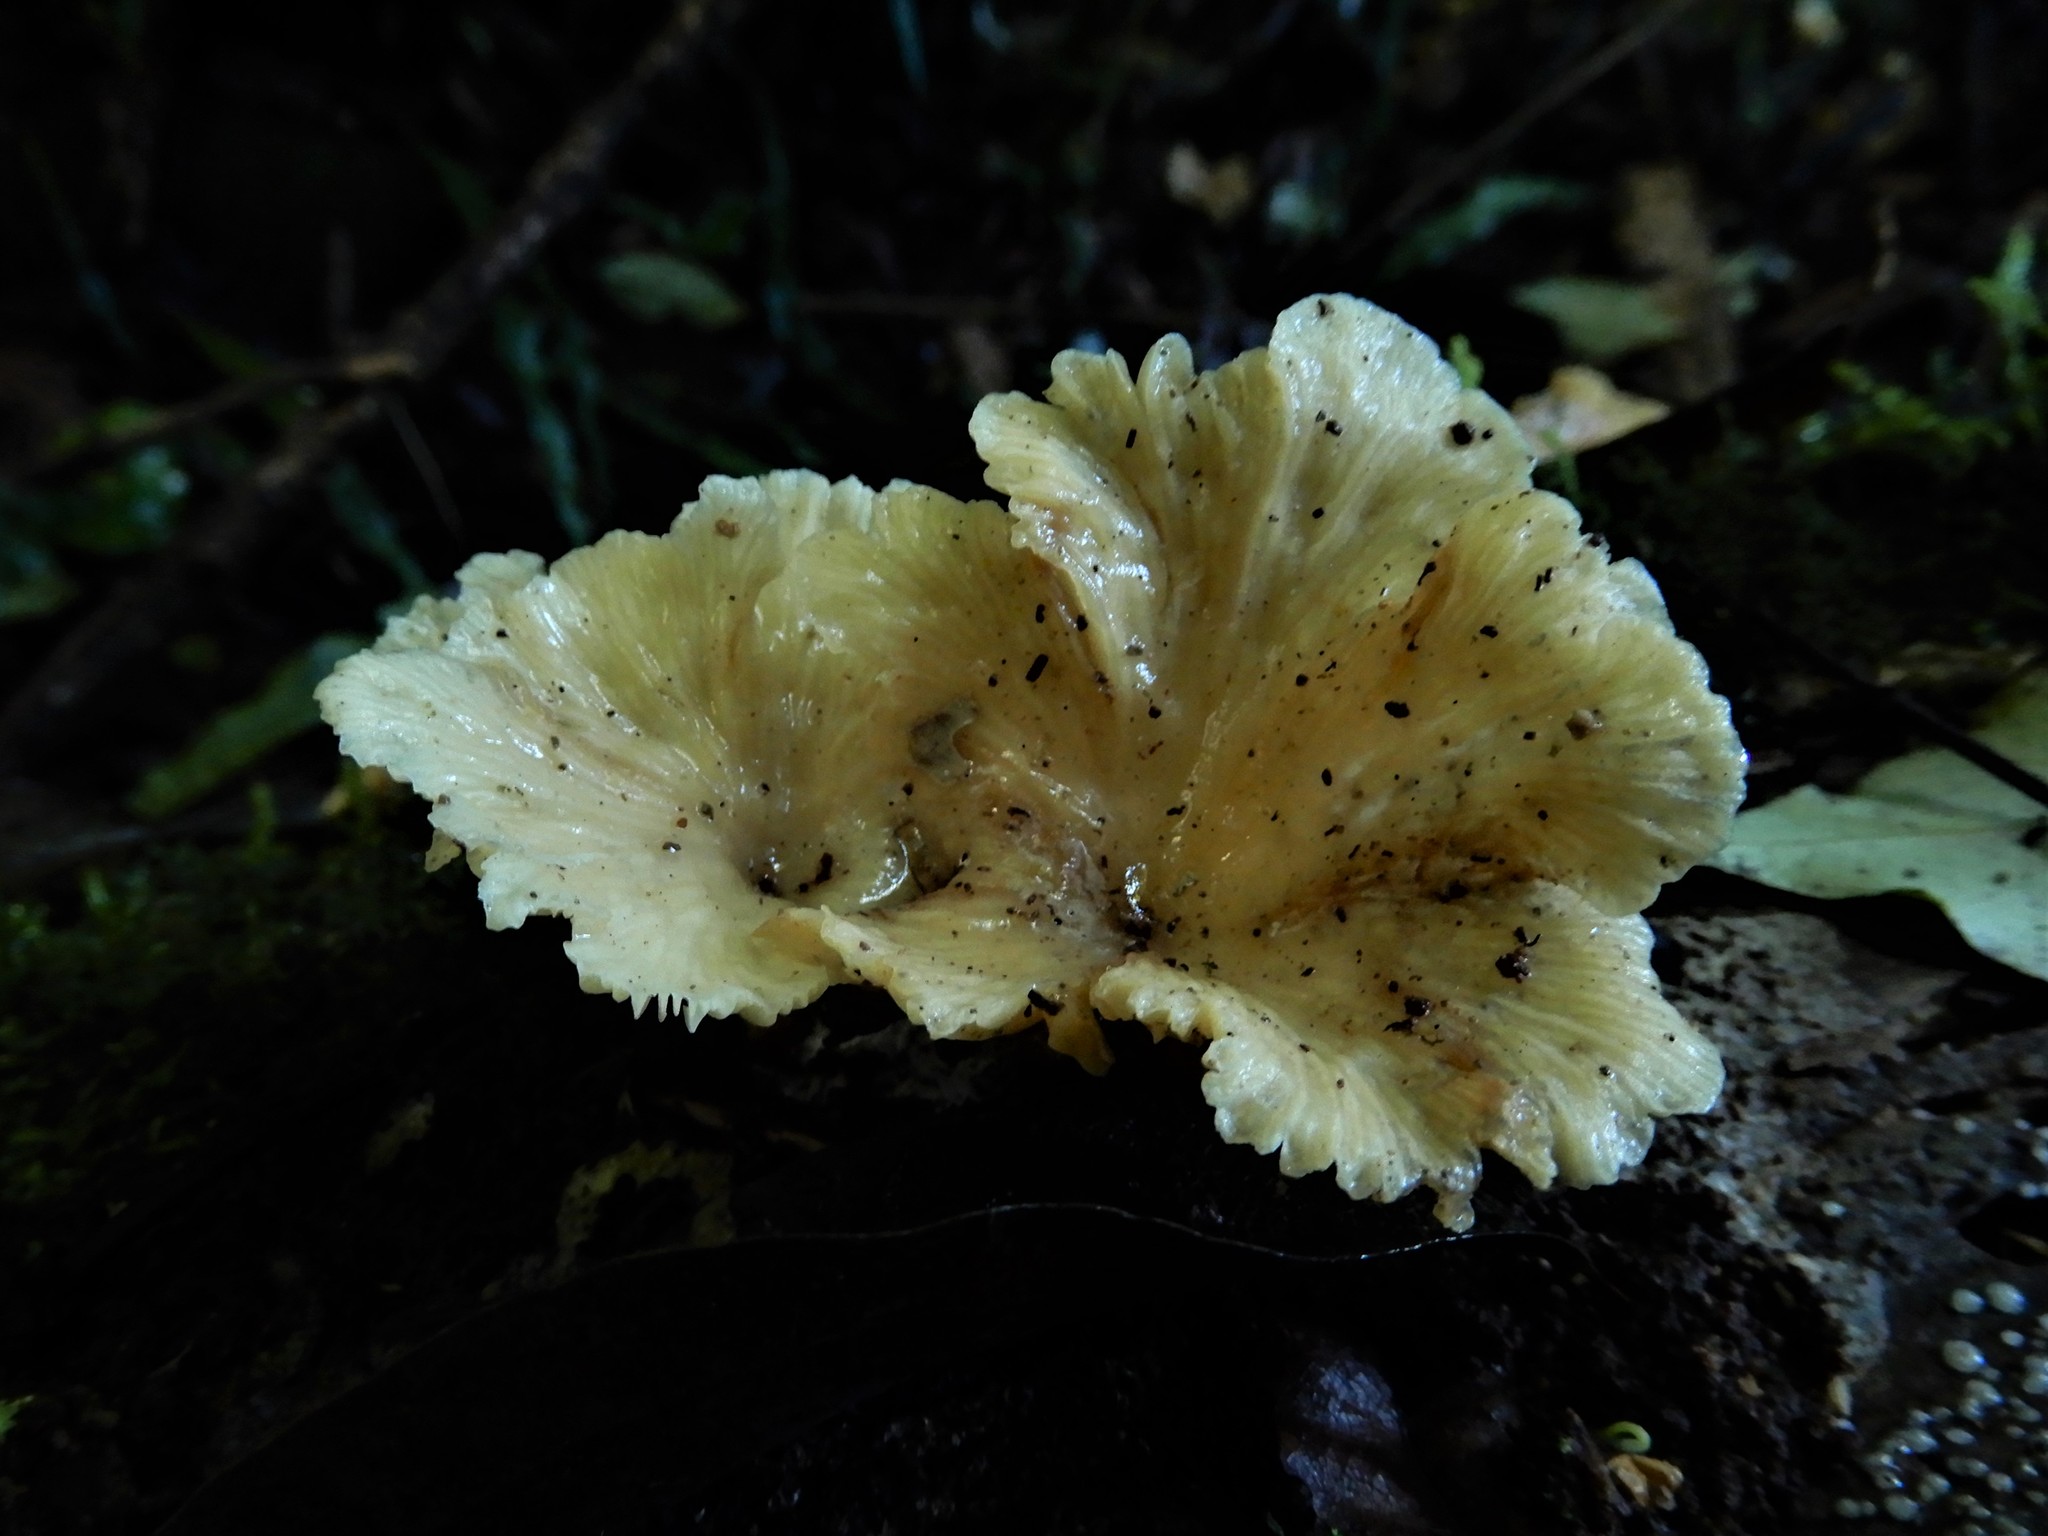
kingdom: Fungi
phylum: Basidiomycota
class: Agaricomycetes
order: Agaricales
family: Tricholomataceae
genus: Rhizocybe
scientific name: Rhizocybe albida
